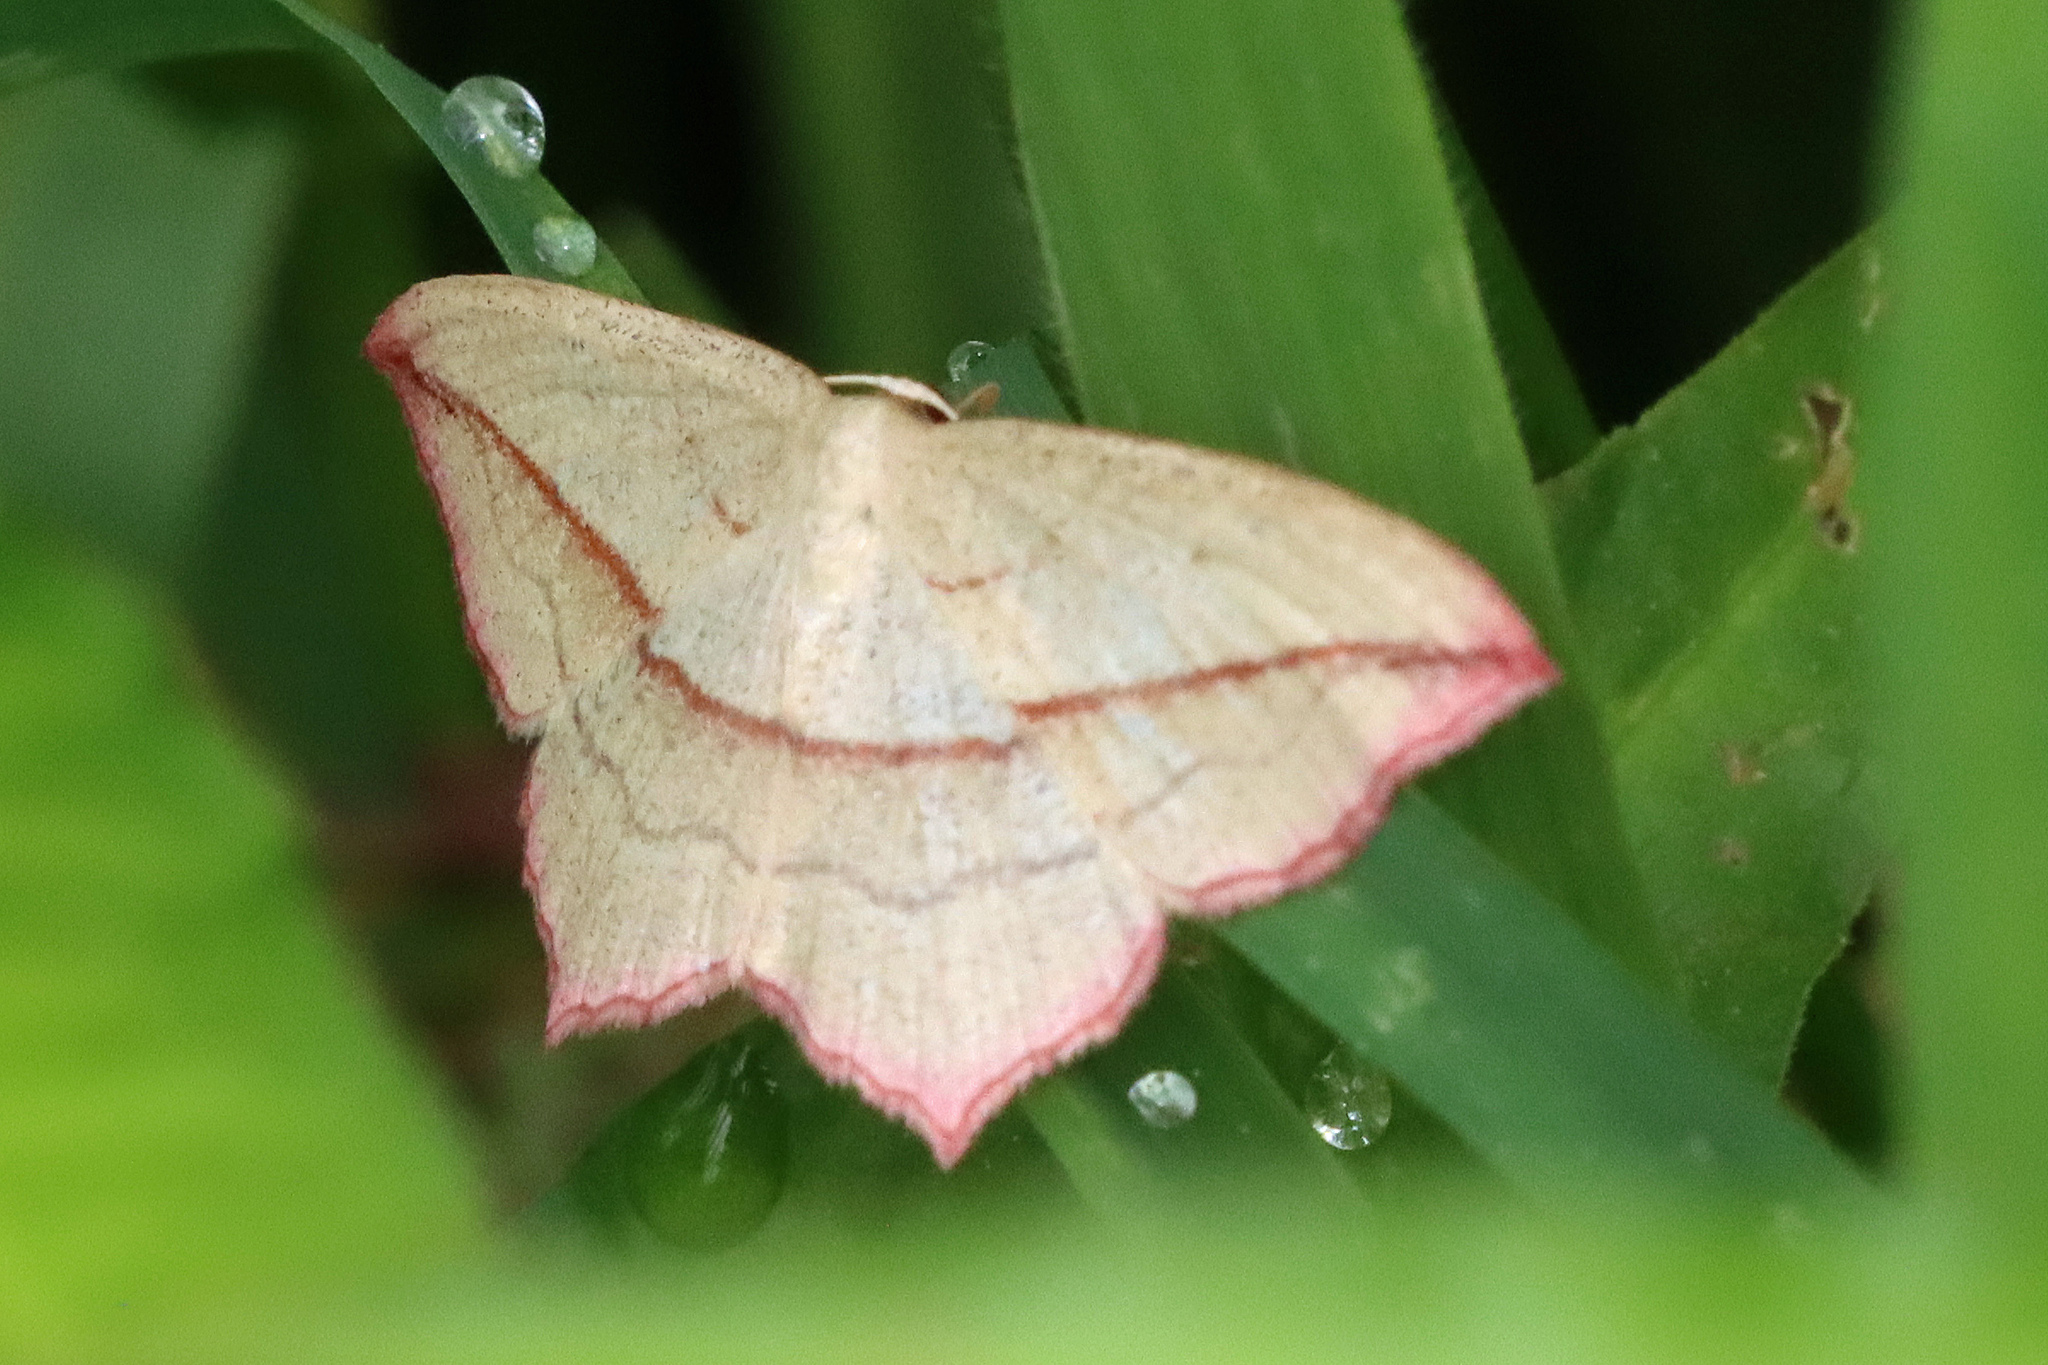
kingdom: Animalia
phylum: Arthropoda
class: Insecta
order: Lepidoptera
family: Geometridae
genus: Timandra
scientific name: Timandra comae
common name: Blood-vein
